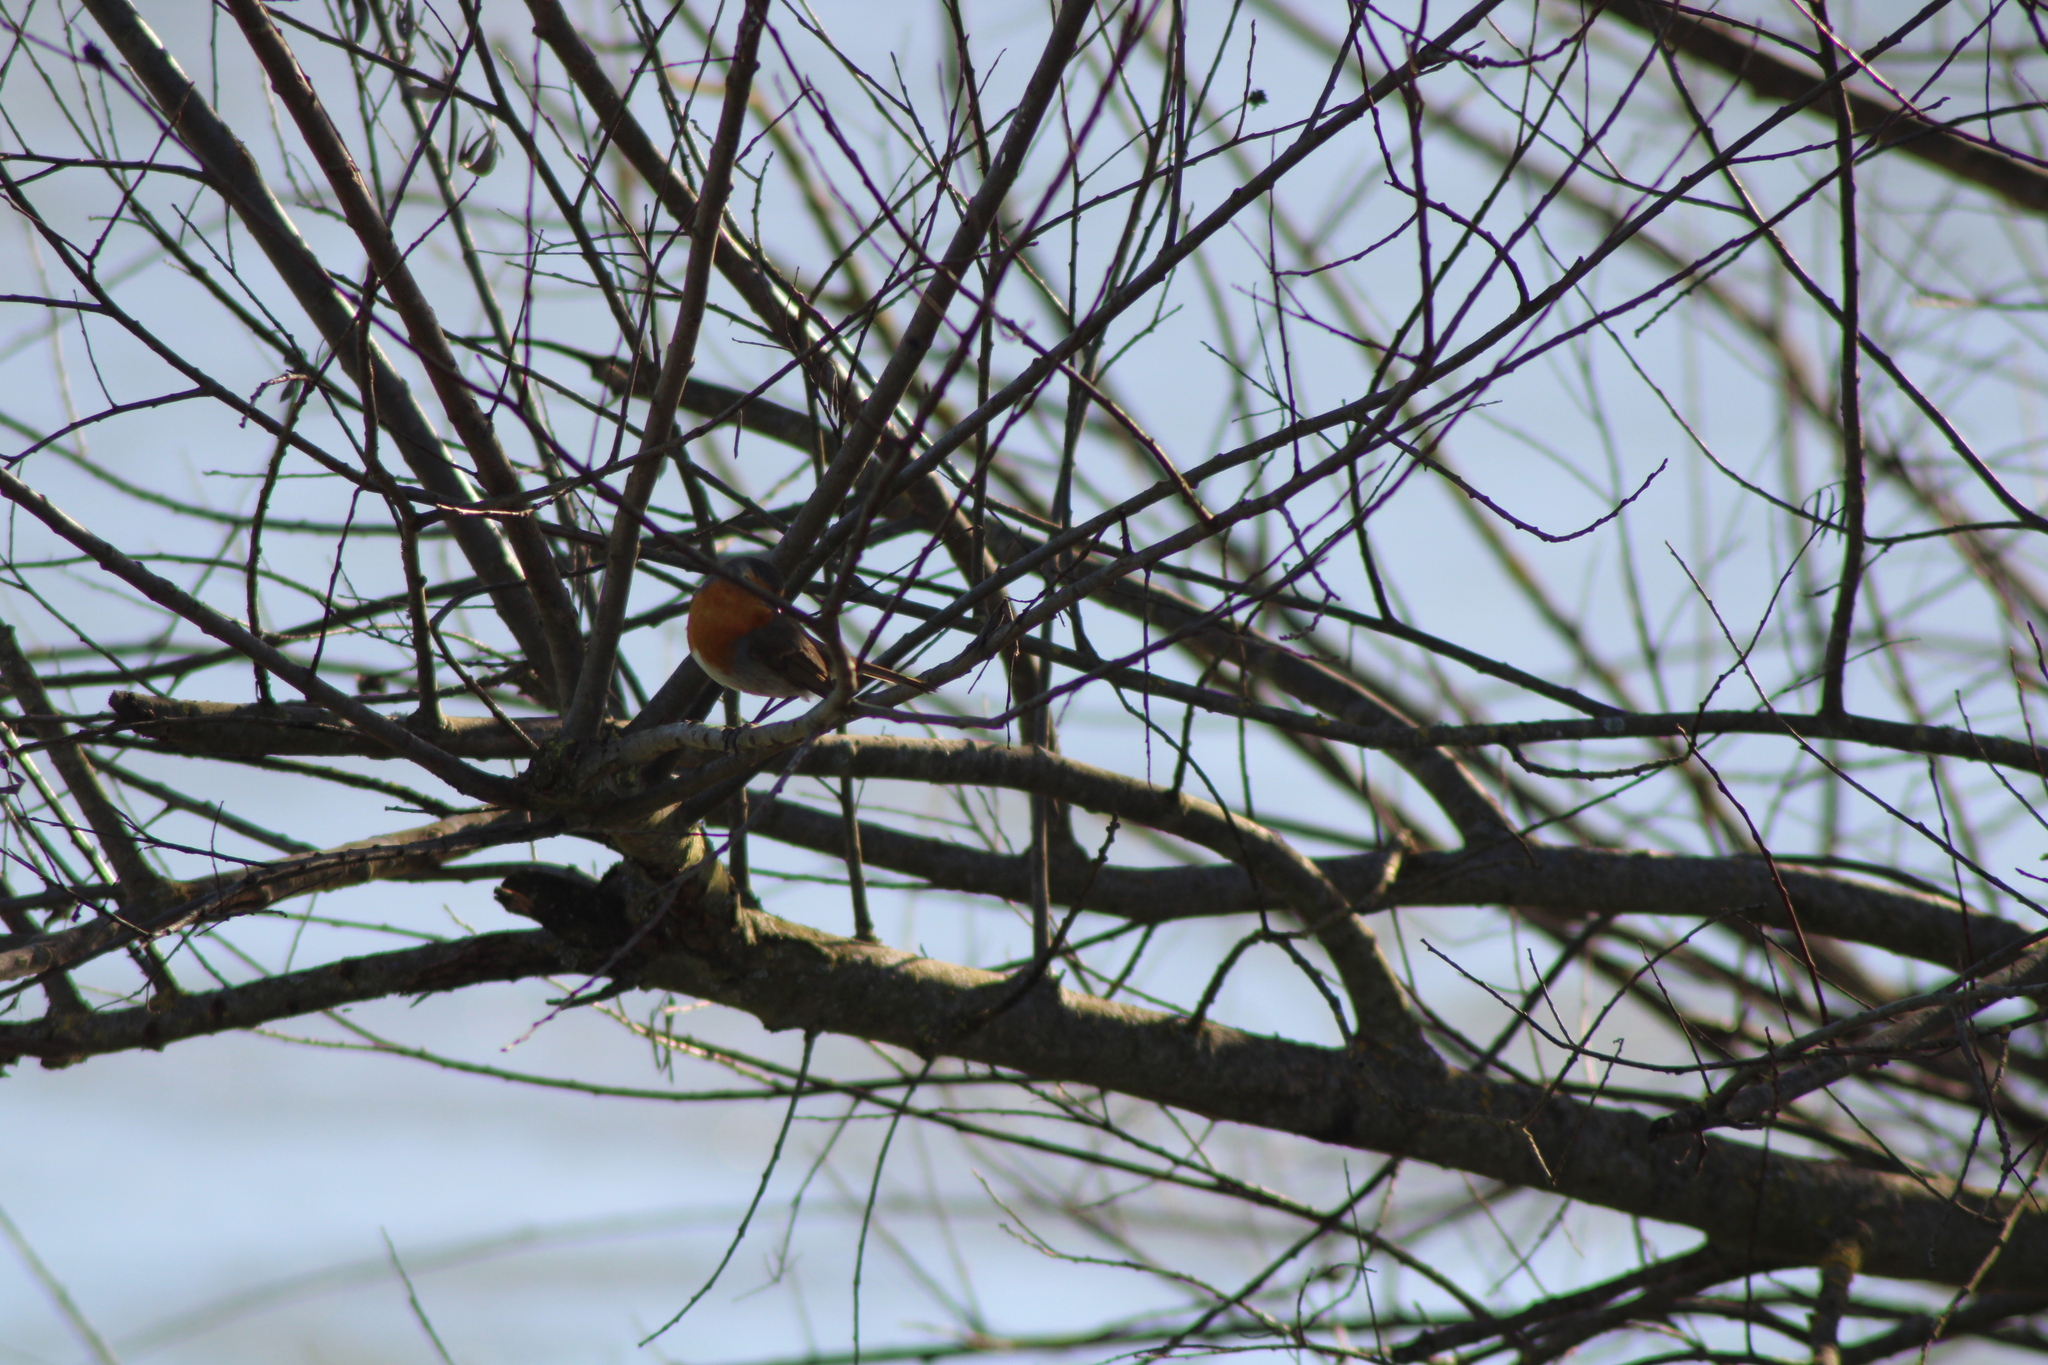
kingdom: Animalia
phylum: Chordata
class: Aves
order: Passeriformes
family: Muscicapidae
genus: Erithacus
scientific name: Erithacus rubecula
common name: European robin
